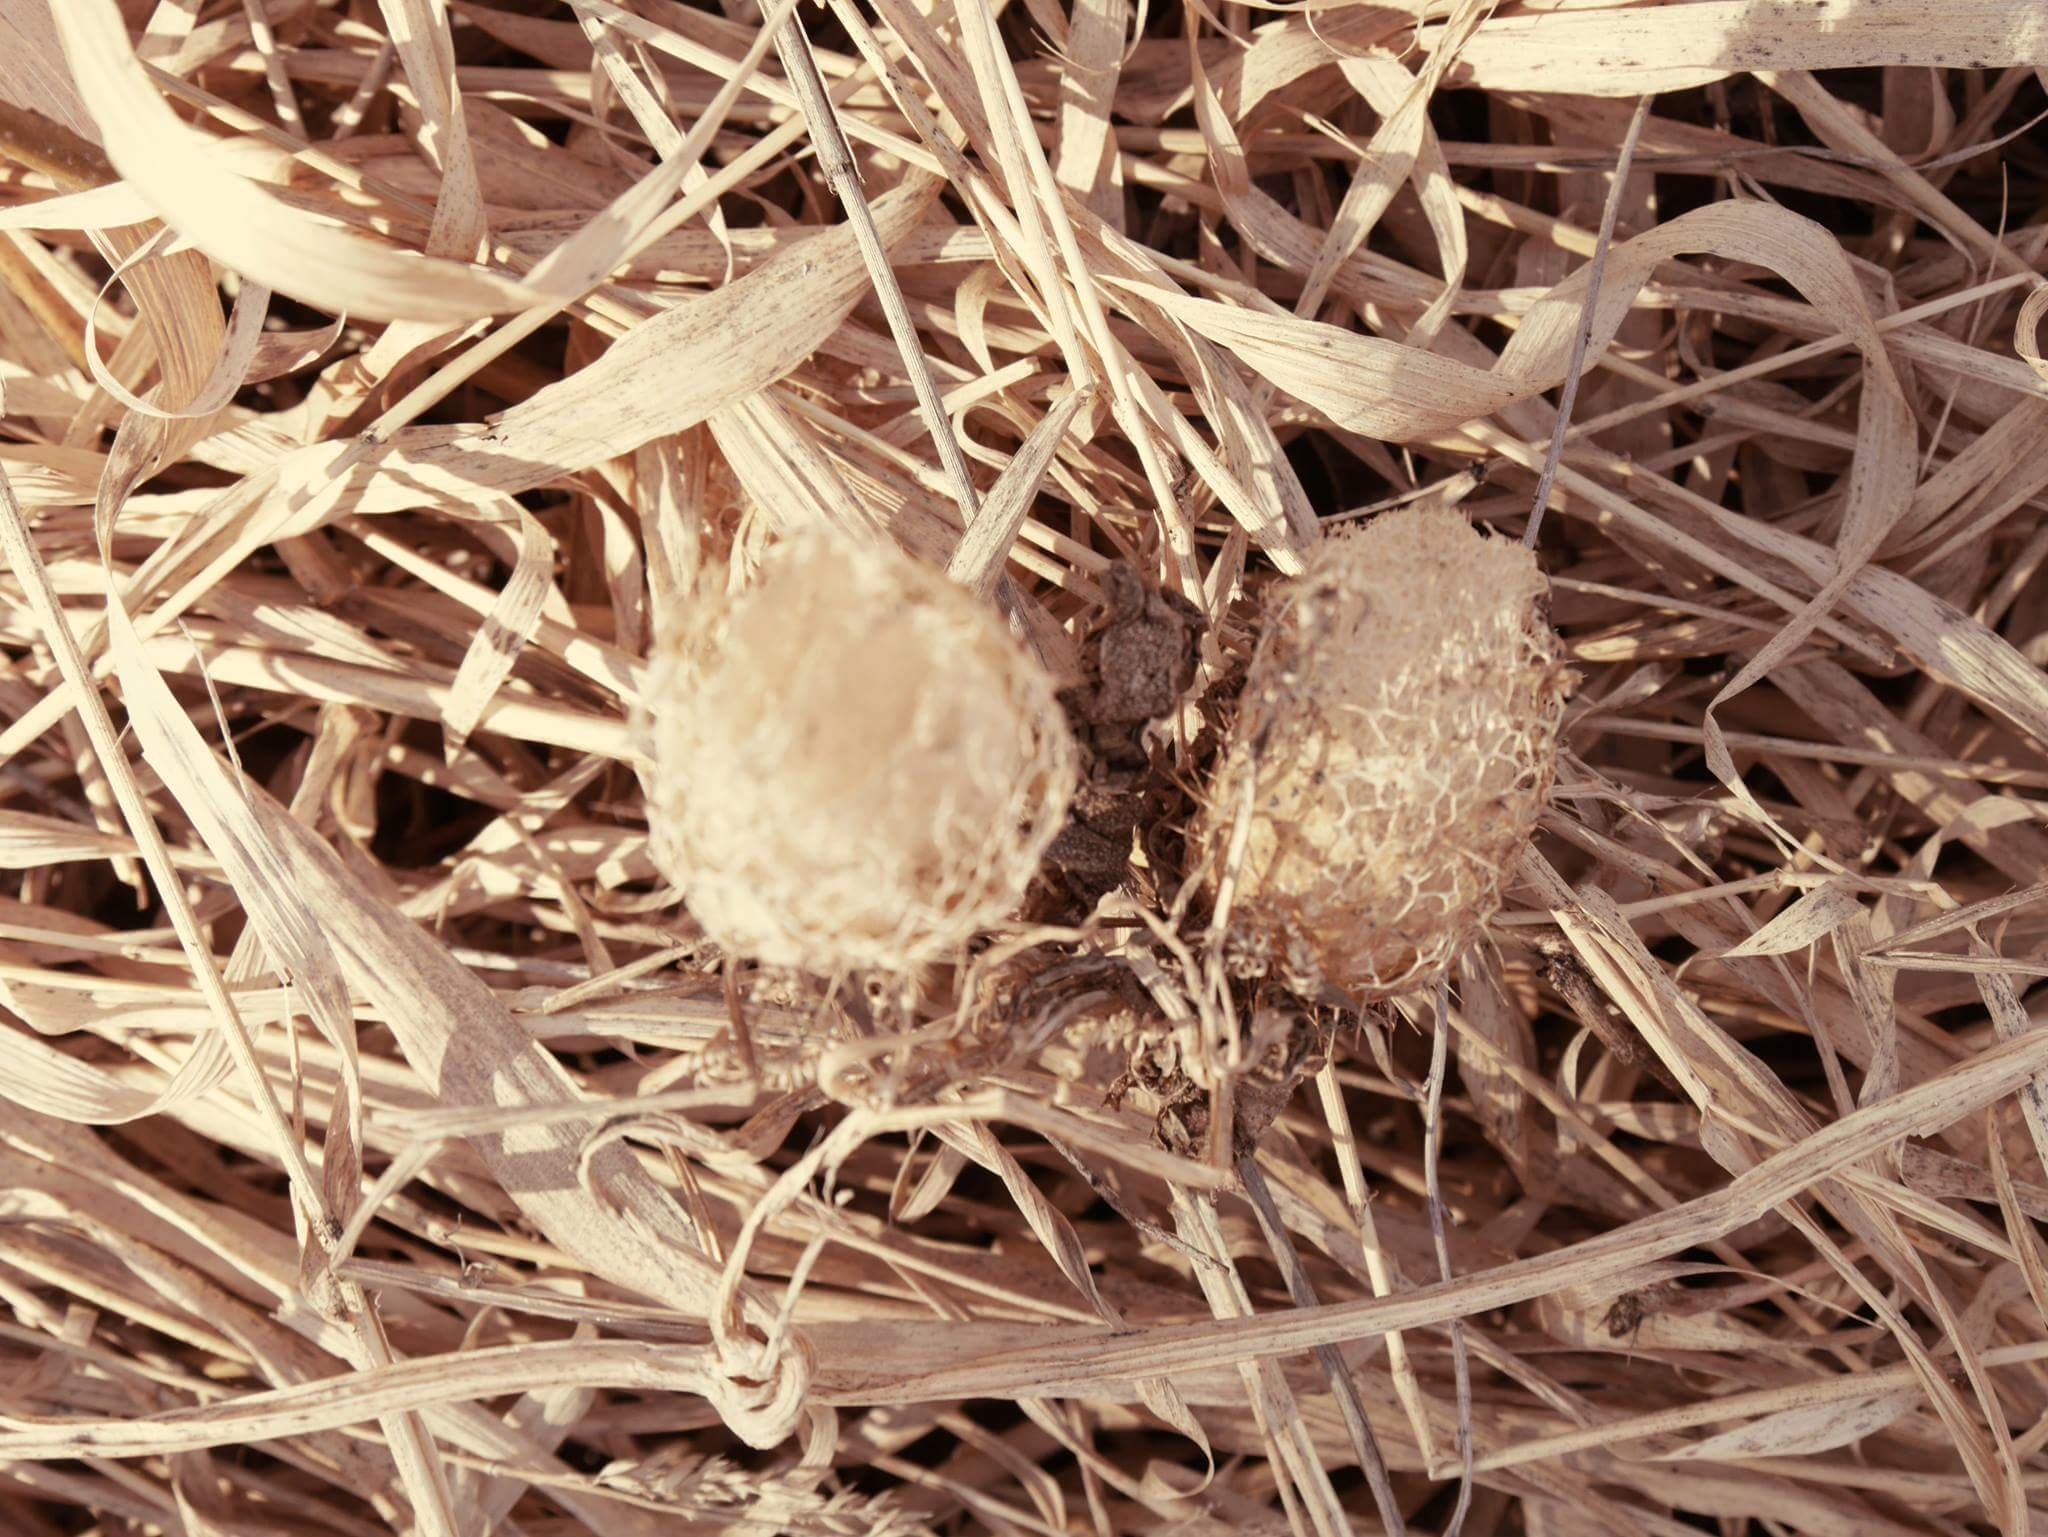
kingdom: Plantae
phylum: Tracheophyta
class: Magnoliopsida
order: Cucurbitales
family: Cucurbitaceae
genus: Echinocystis
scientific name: Echinocystis lobata
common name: Wild cucumber
